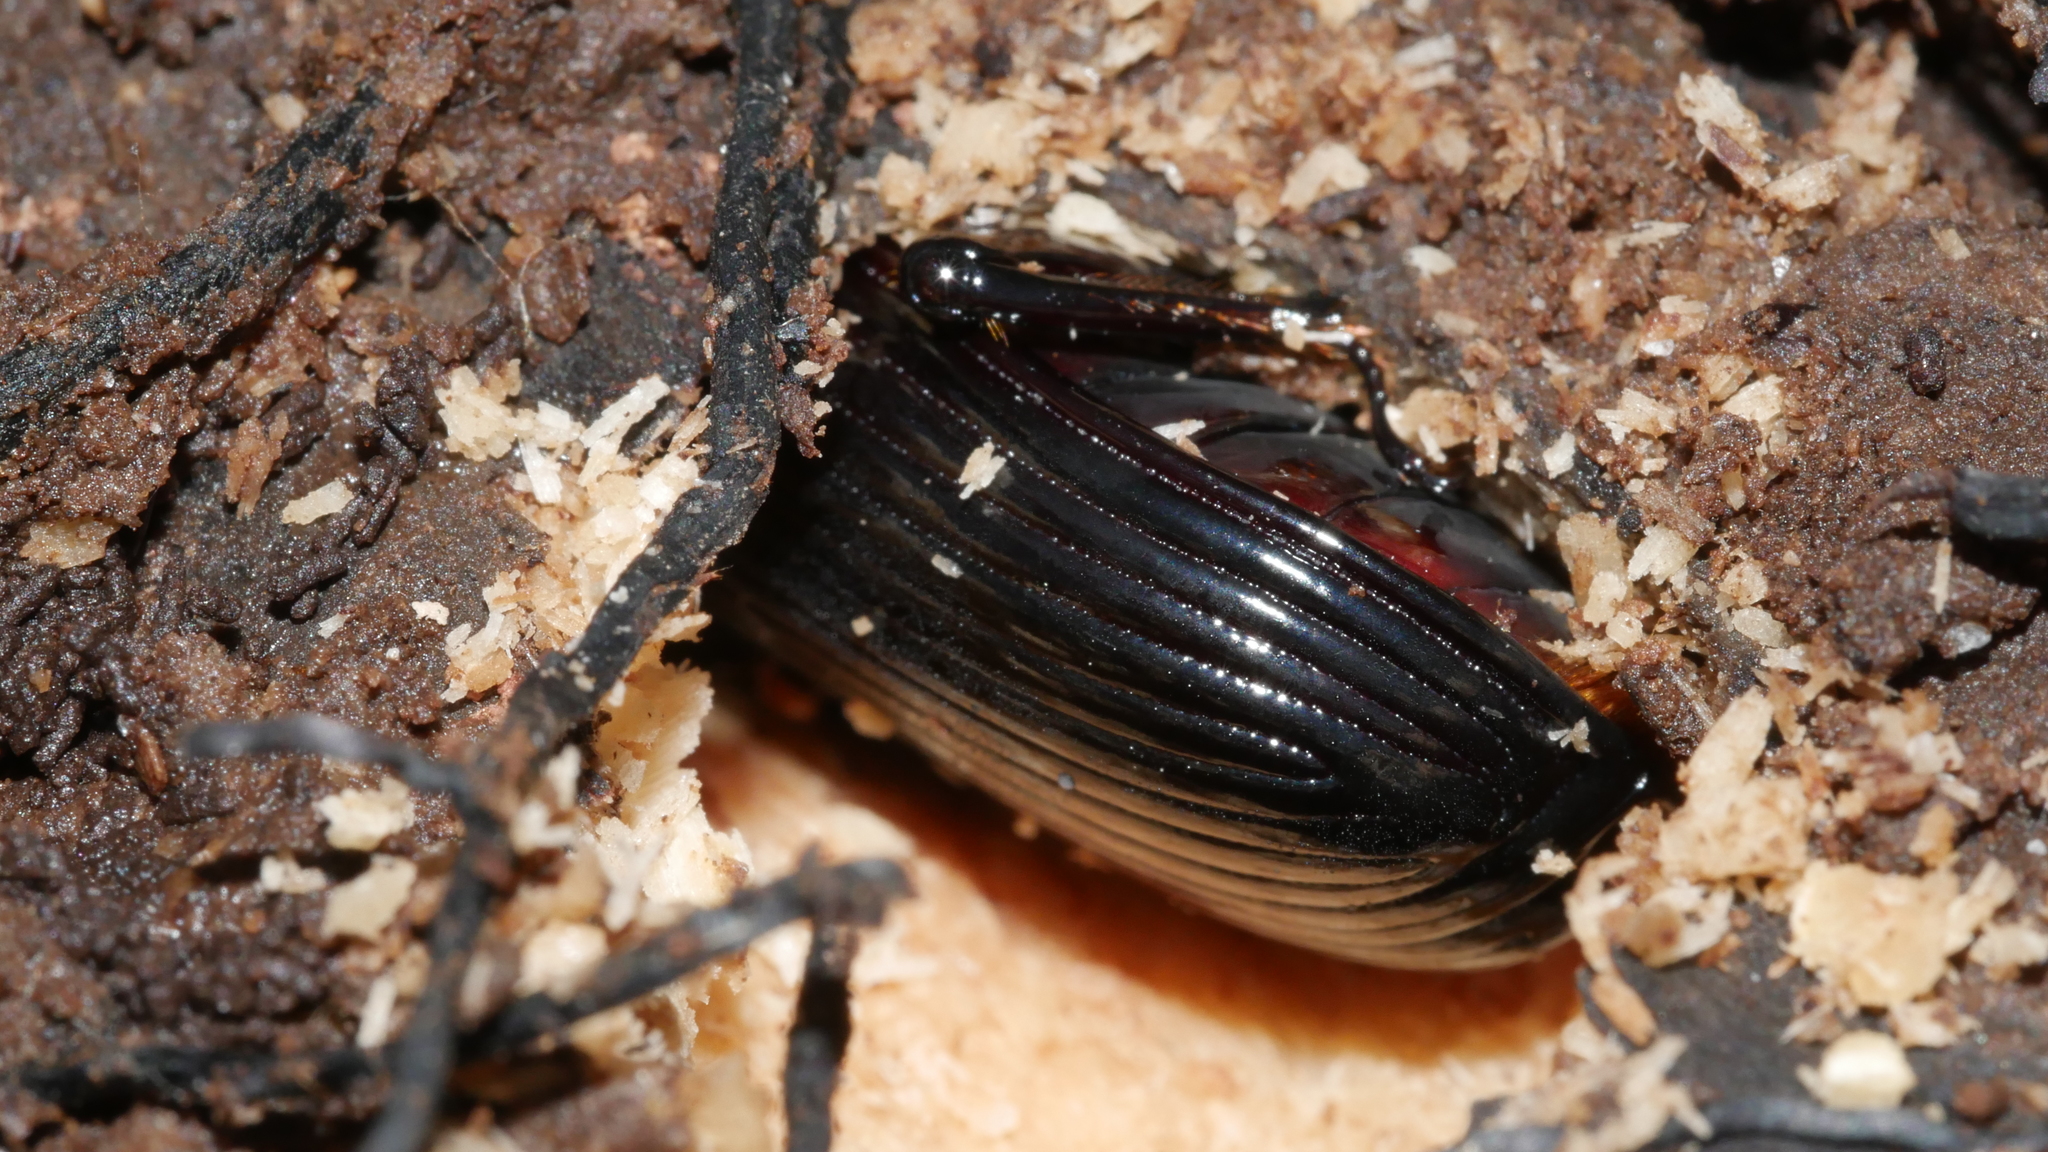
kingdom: Animalia
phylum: Arthropoda
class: Insecta
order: Coleoptera
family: Passalidae
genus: Odontotaenius
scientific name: Odontotaenius disjunctus
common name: Patent leather beetle
